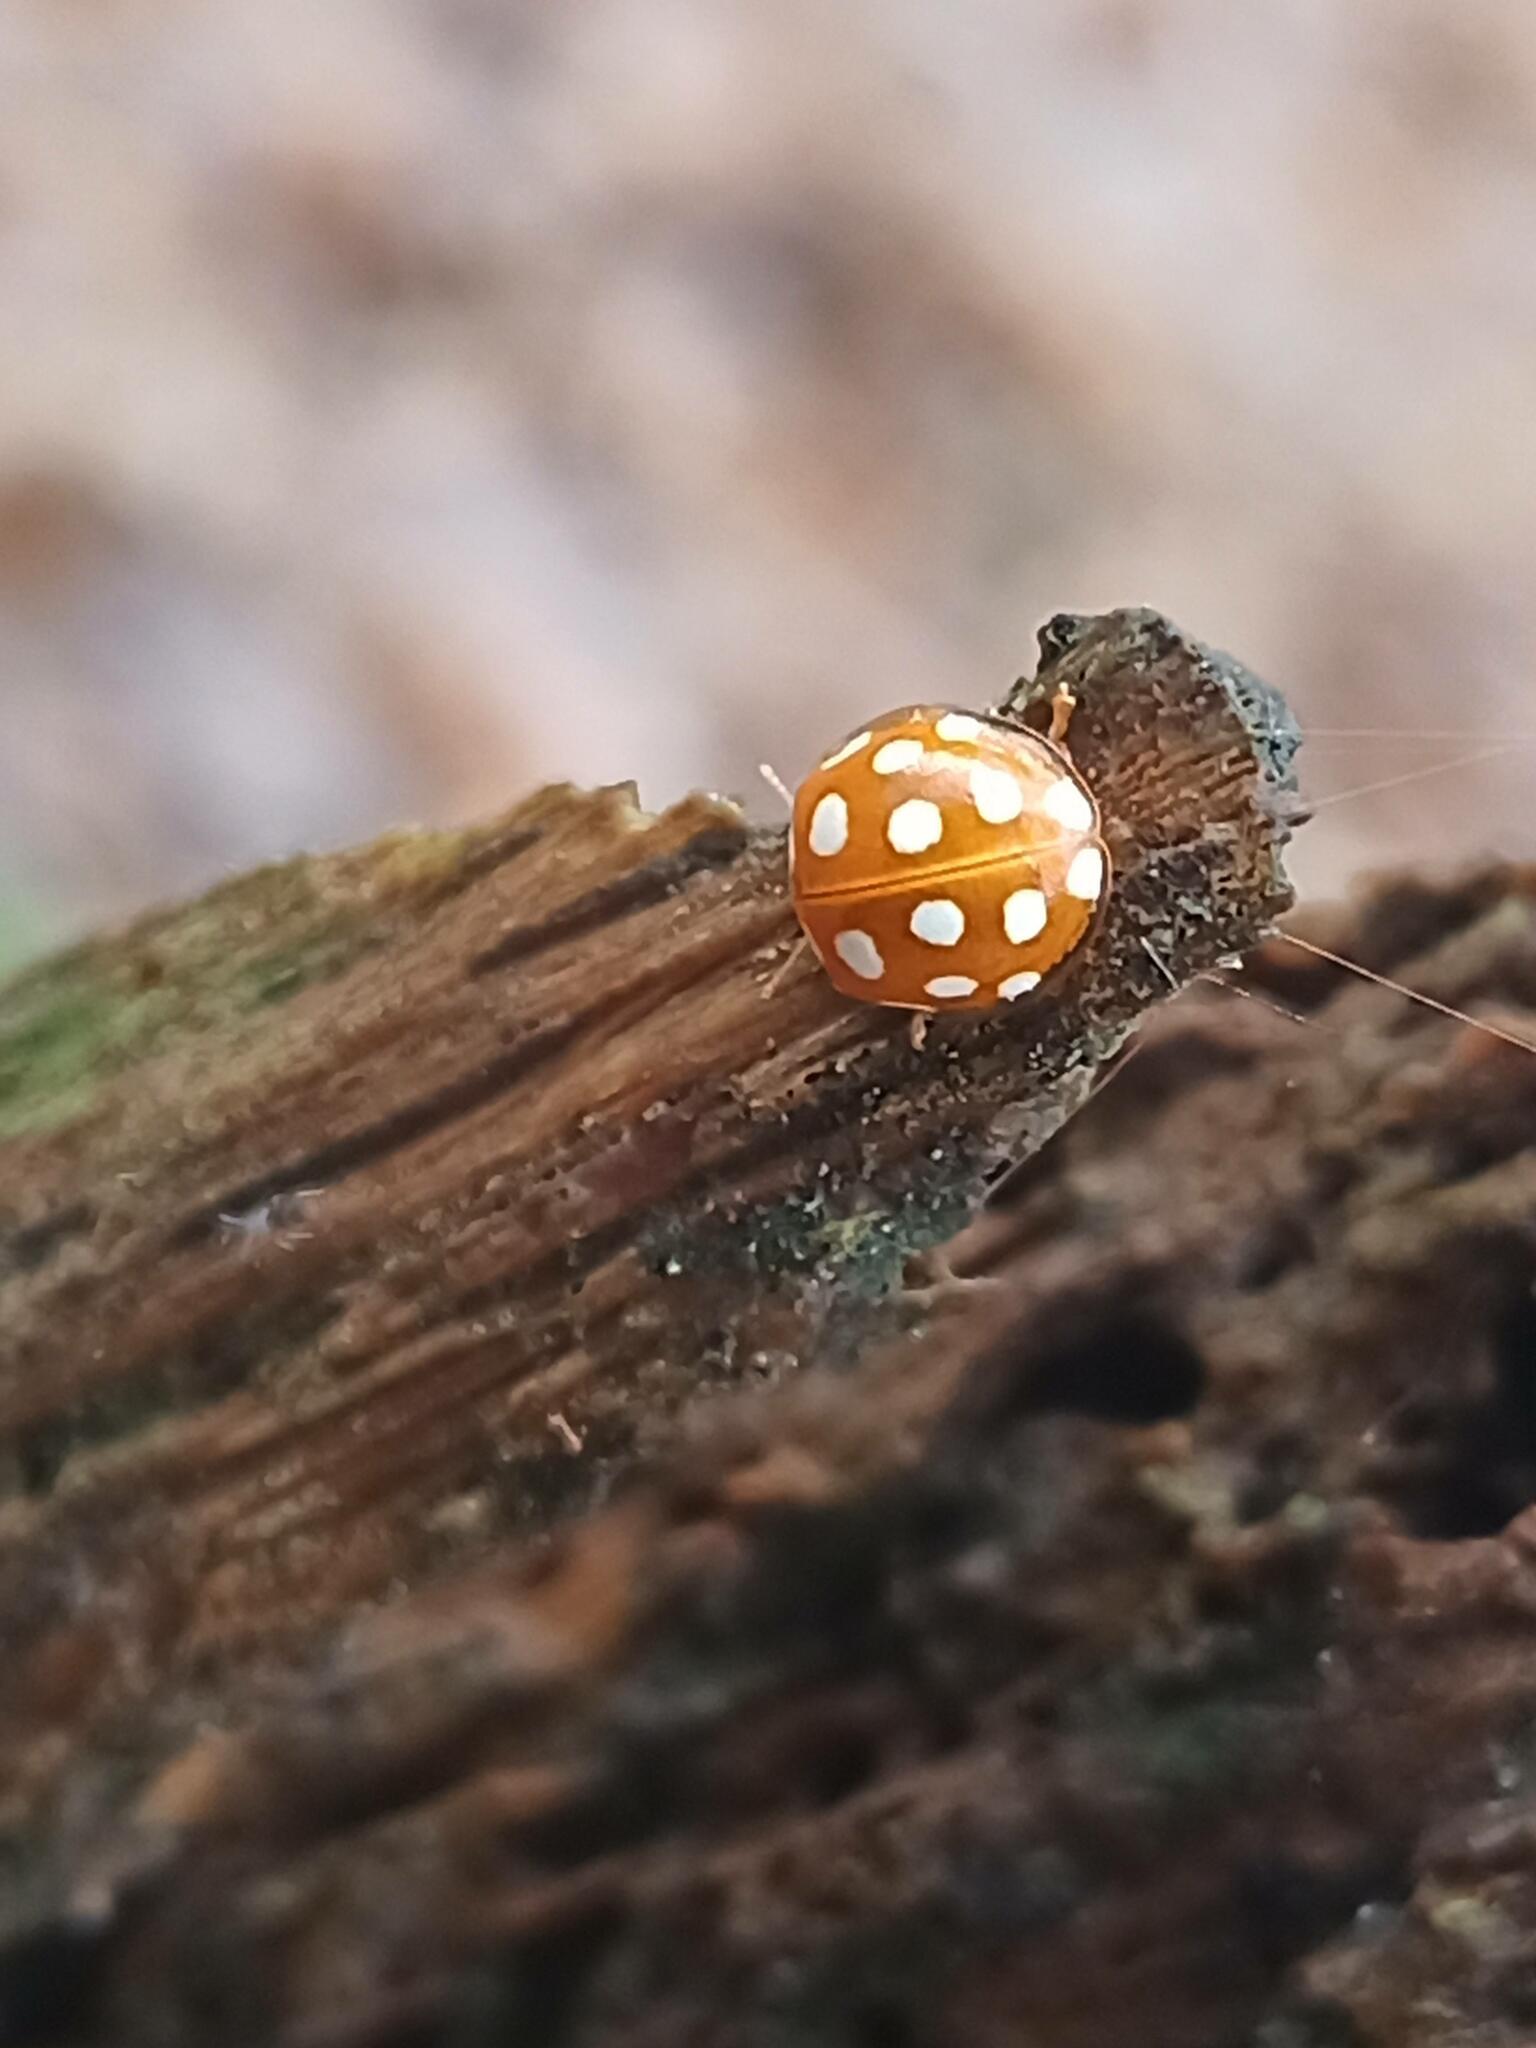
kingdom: Animalia
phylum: Arthropoda
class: Insecta
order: Coleoptera
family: Coccinellidae
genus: Halyzia
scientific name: Halyzia sedecimguttata
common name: Orange ladybird
